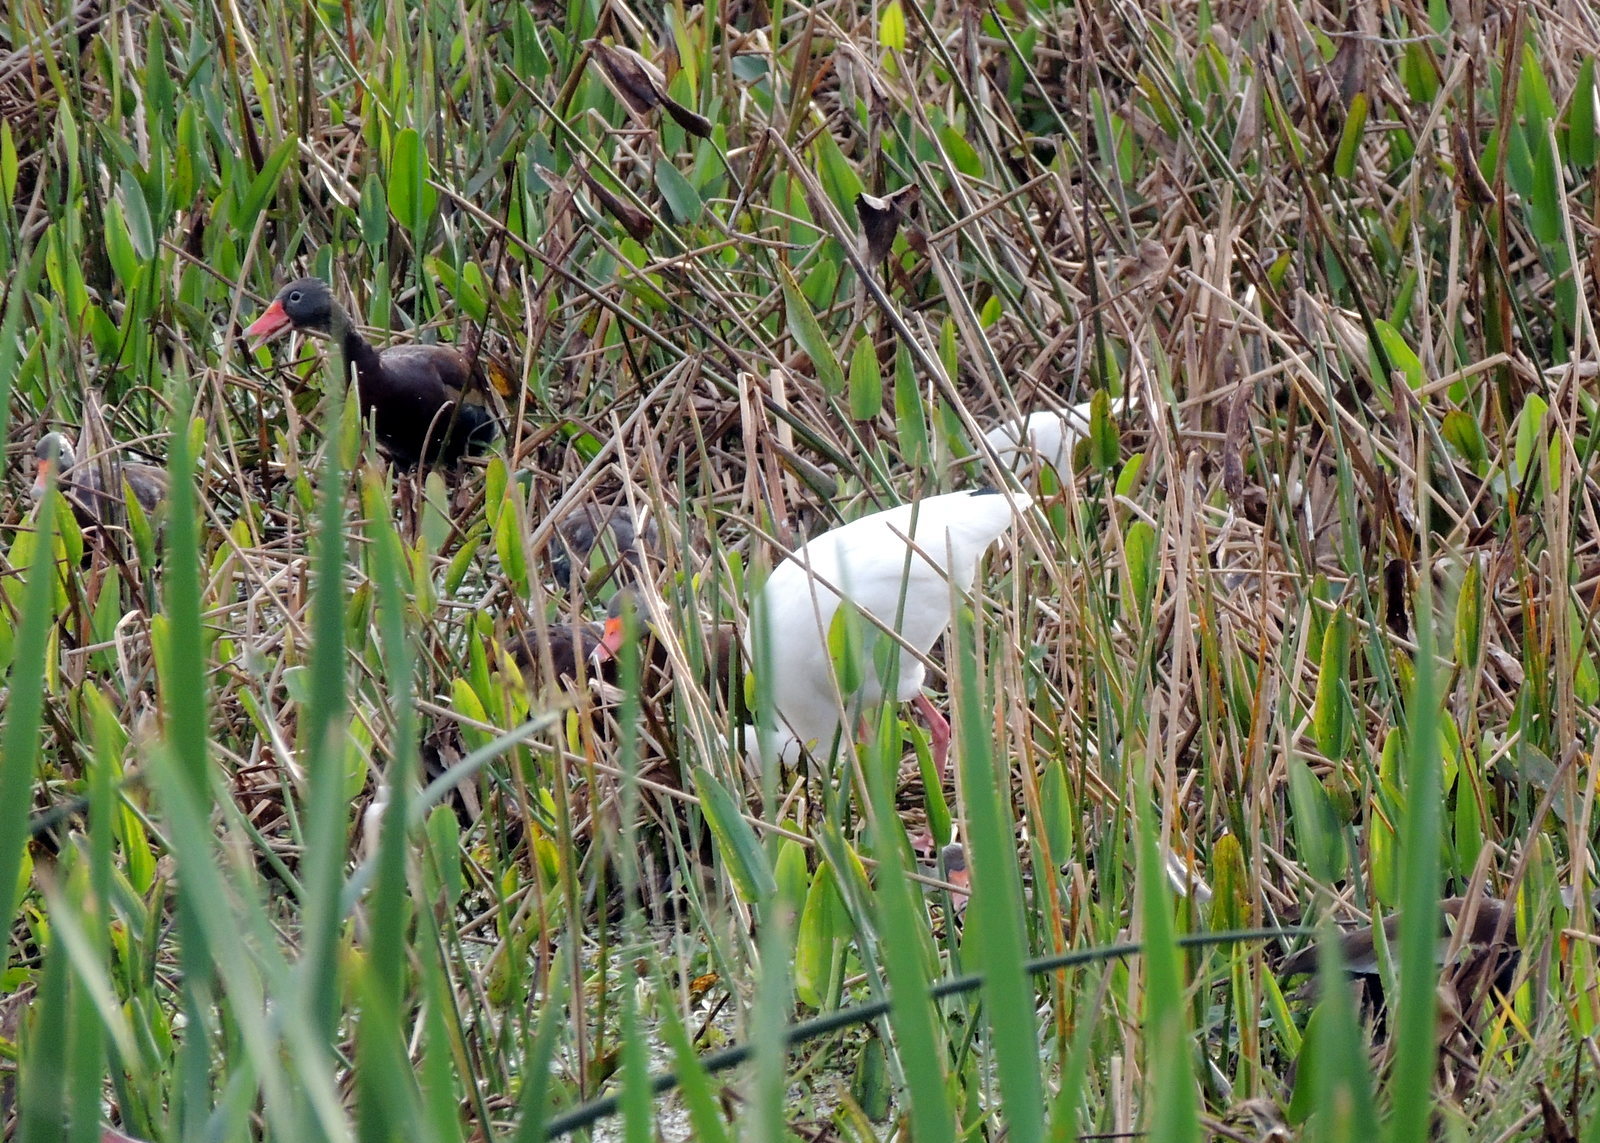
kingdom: Animalia
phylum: Chordata
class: Aves
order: Anseriformes
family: Anatidae
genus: Dendrocygna
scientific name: Dendrocygna autumnalis
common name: Black-bellied whistling duck
